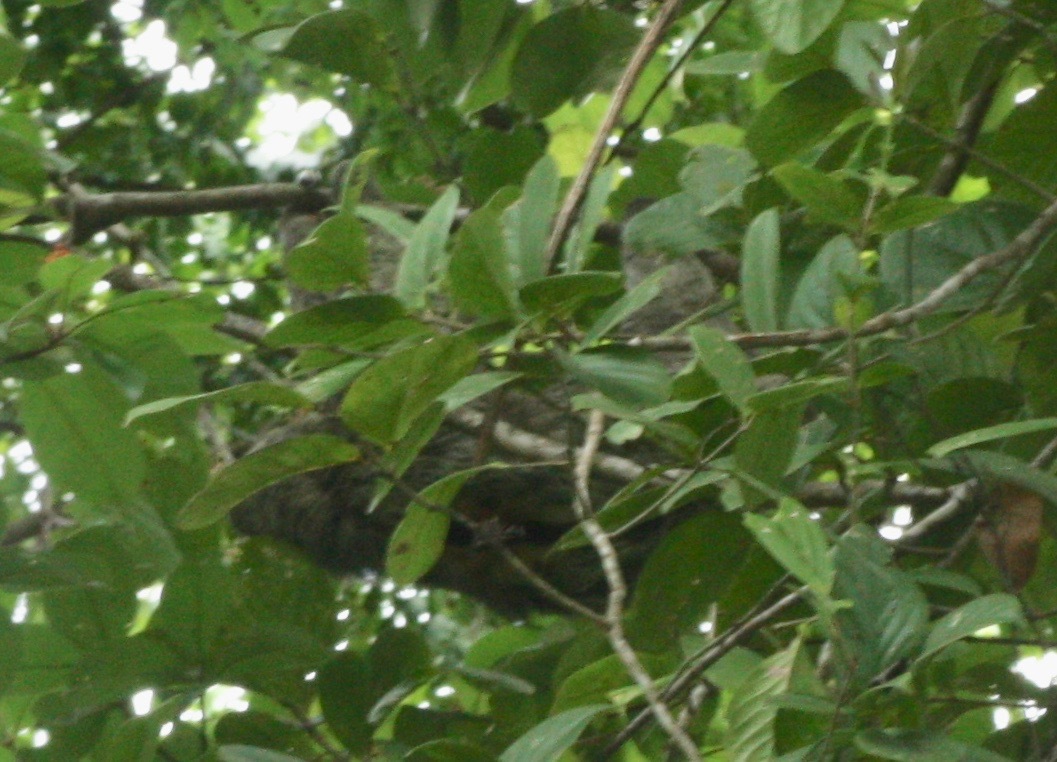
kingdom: Animalia
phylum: Chordata
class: Mammalia
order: Pilosa
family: Bradypodidae
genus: Bradypus
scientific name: Bradypus variegatus
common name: Brown-throated three-toed sloth
